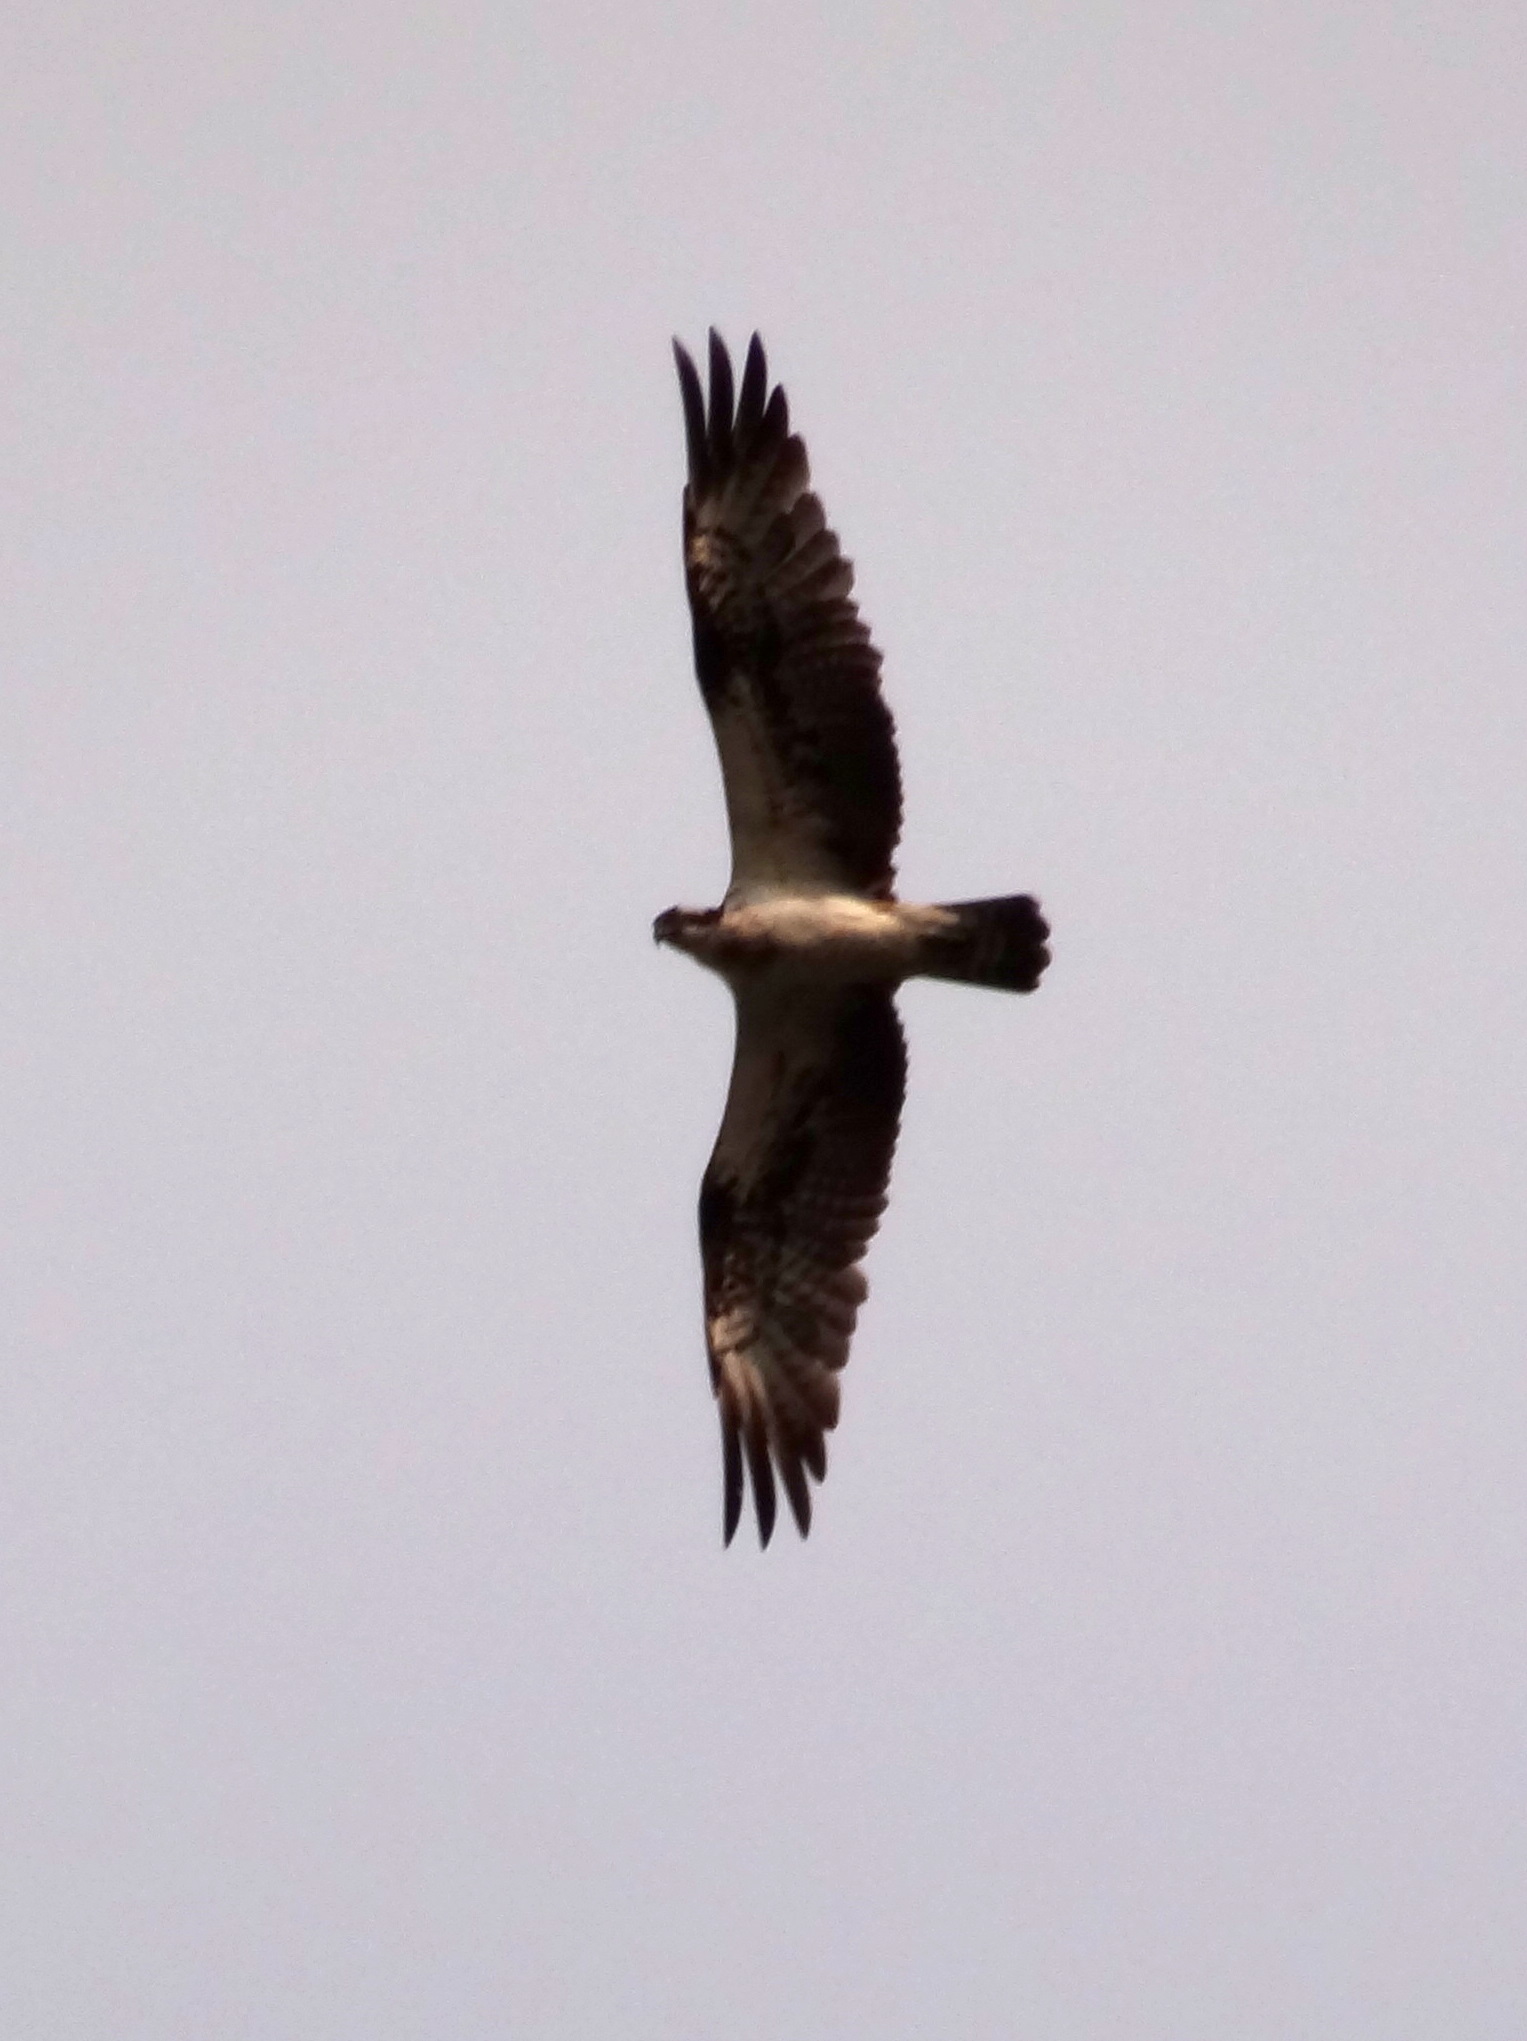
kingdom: Animalia
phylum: Chordata
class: Aves
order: Accipitriformes
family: Pandionidae
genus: Pandion
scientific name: Pandion haliaetus
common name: Osprey
